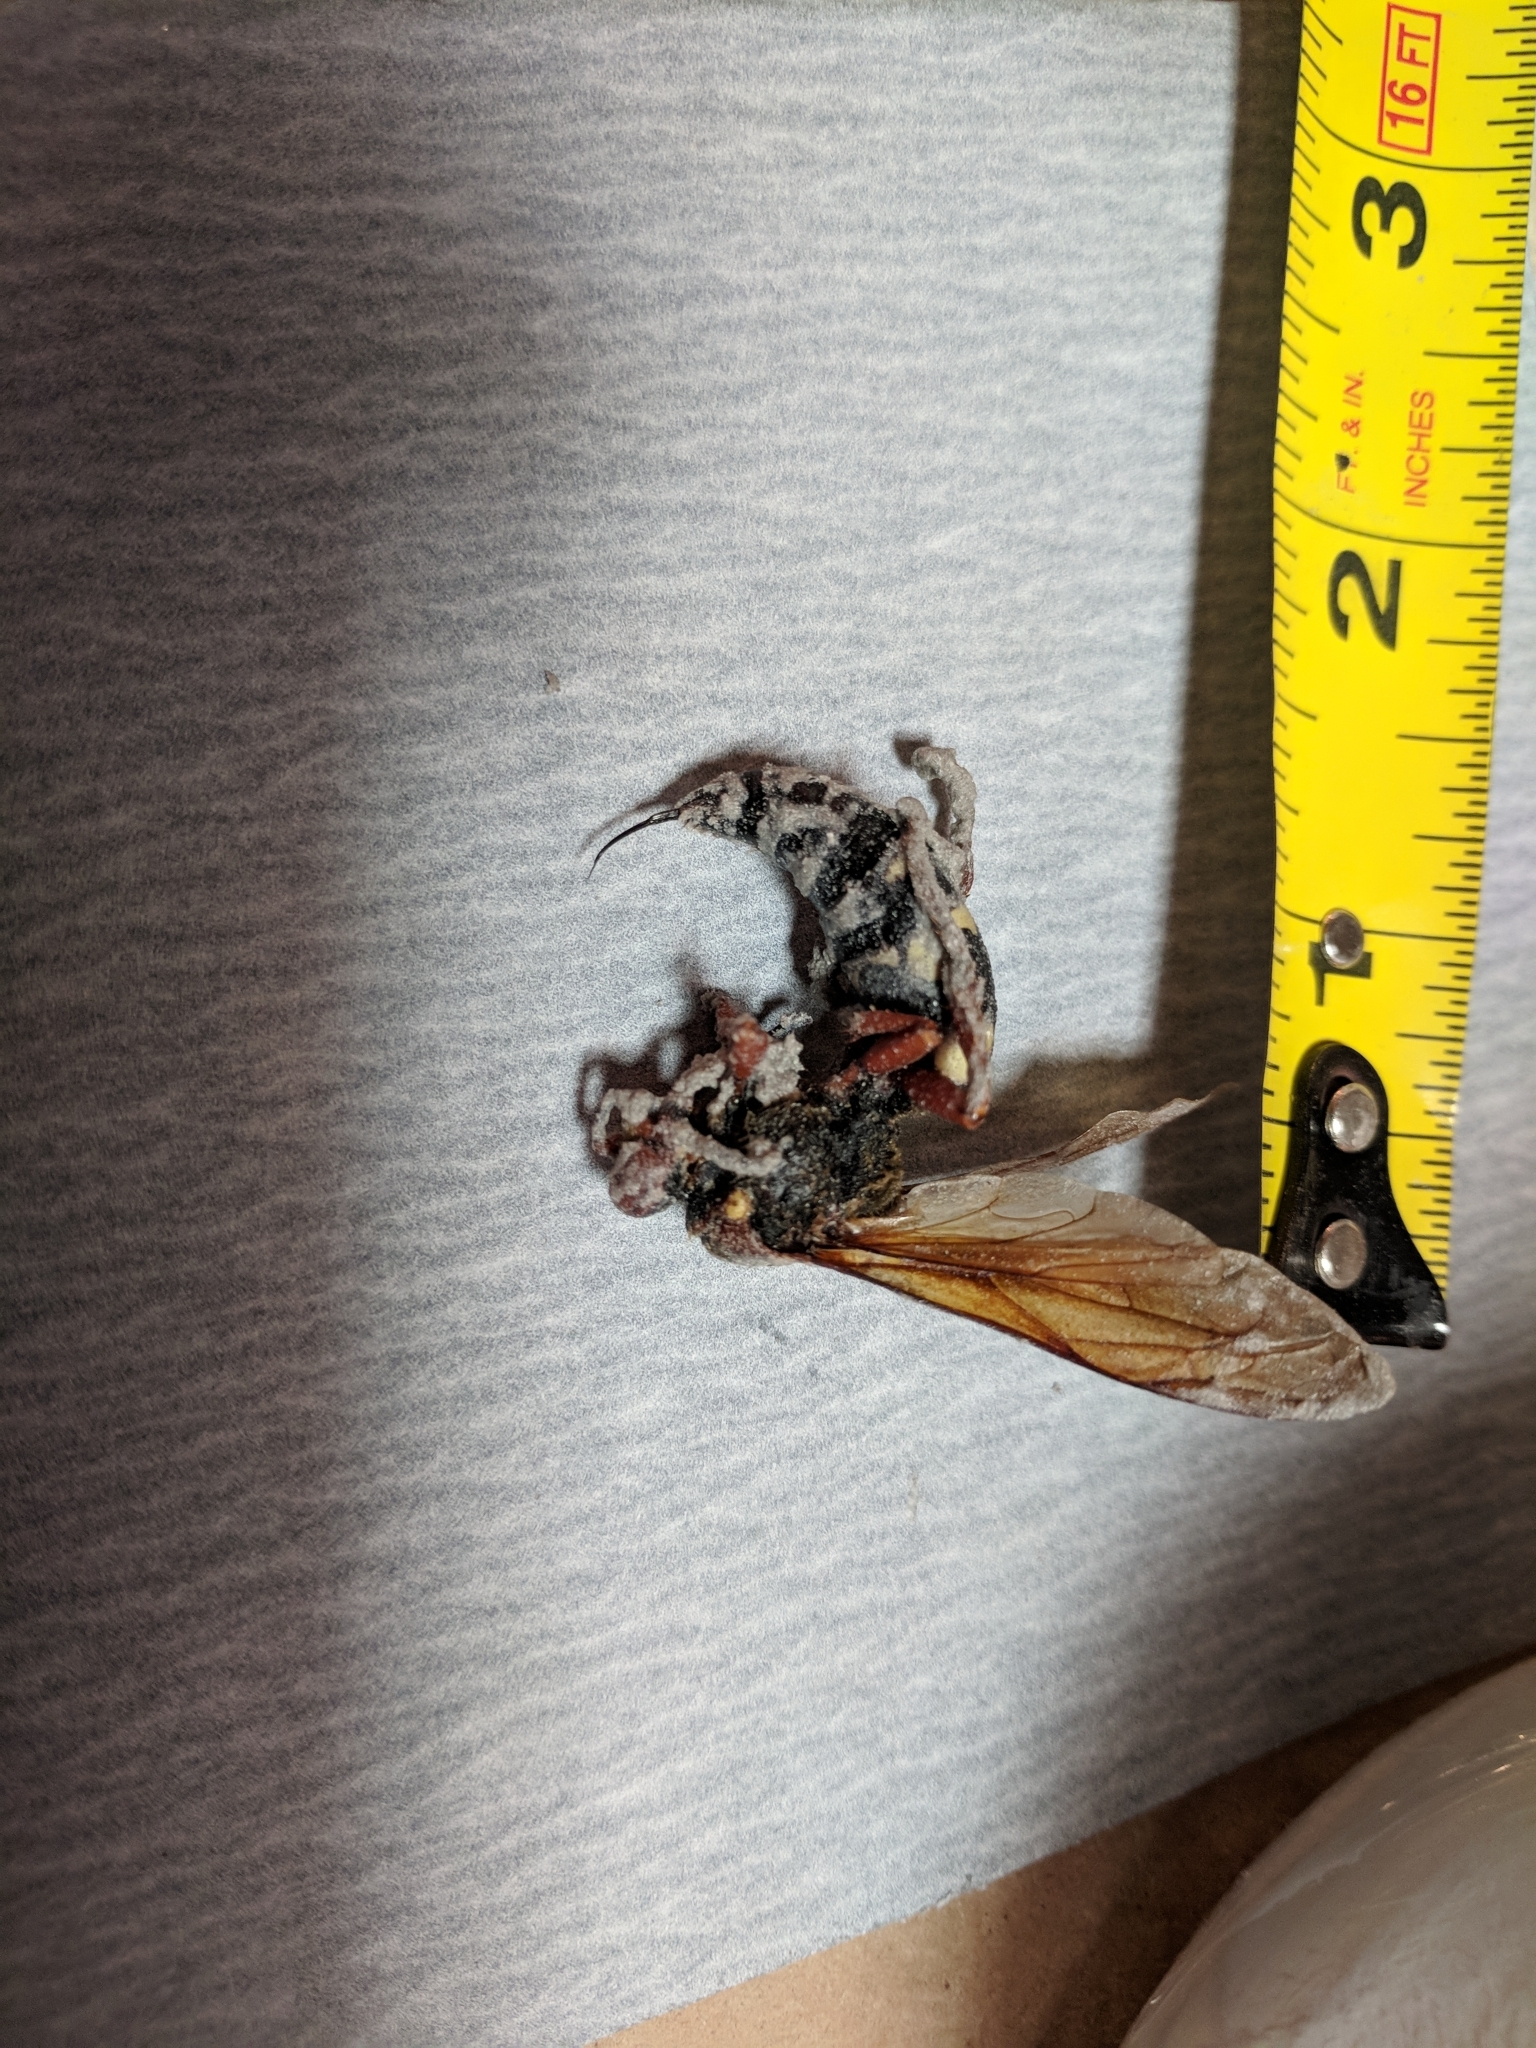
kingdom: Animalia
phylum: Arthropoda
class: Insecta
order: Hymenoptera
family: Crabronidae
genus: Sphecius
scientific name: Sphecius speciosus
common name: Cicada killer
